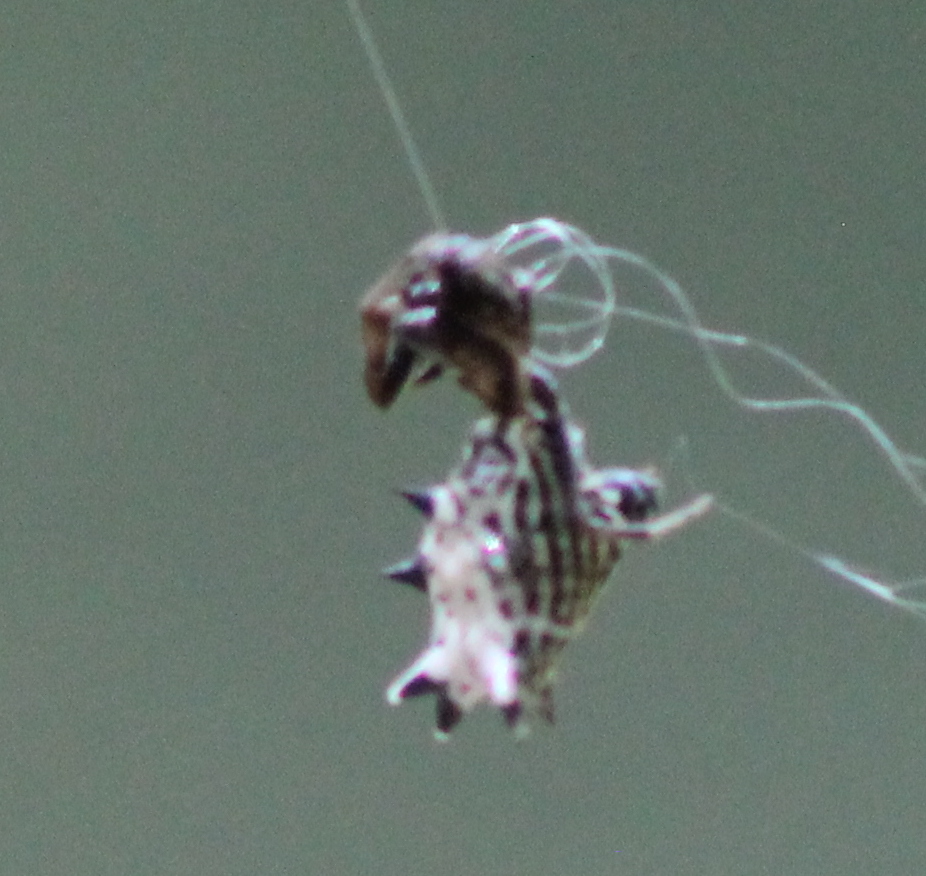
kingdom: Animalia
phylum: Arthropoda
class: Arachnida
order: Araneae
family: Araneidae
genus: Micrathena
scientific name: Micrathena gracilis
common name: Orb weavers
